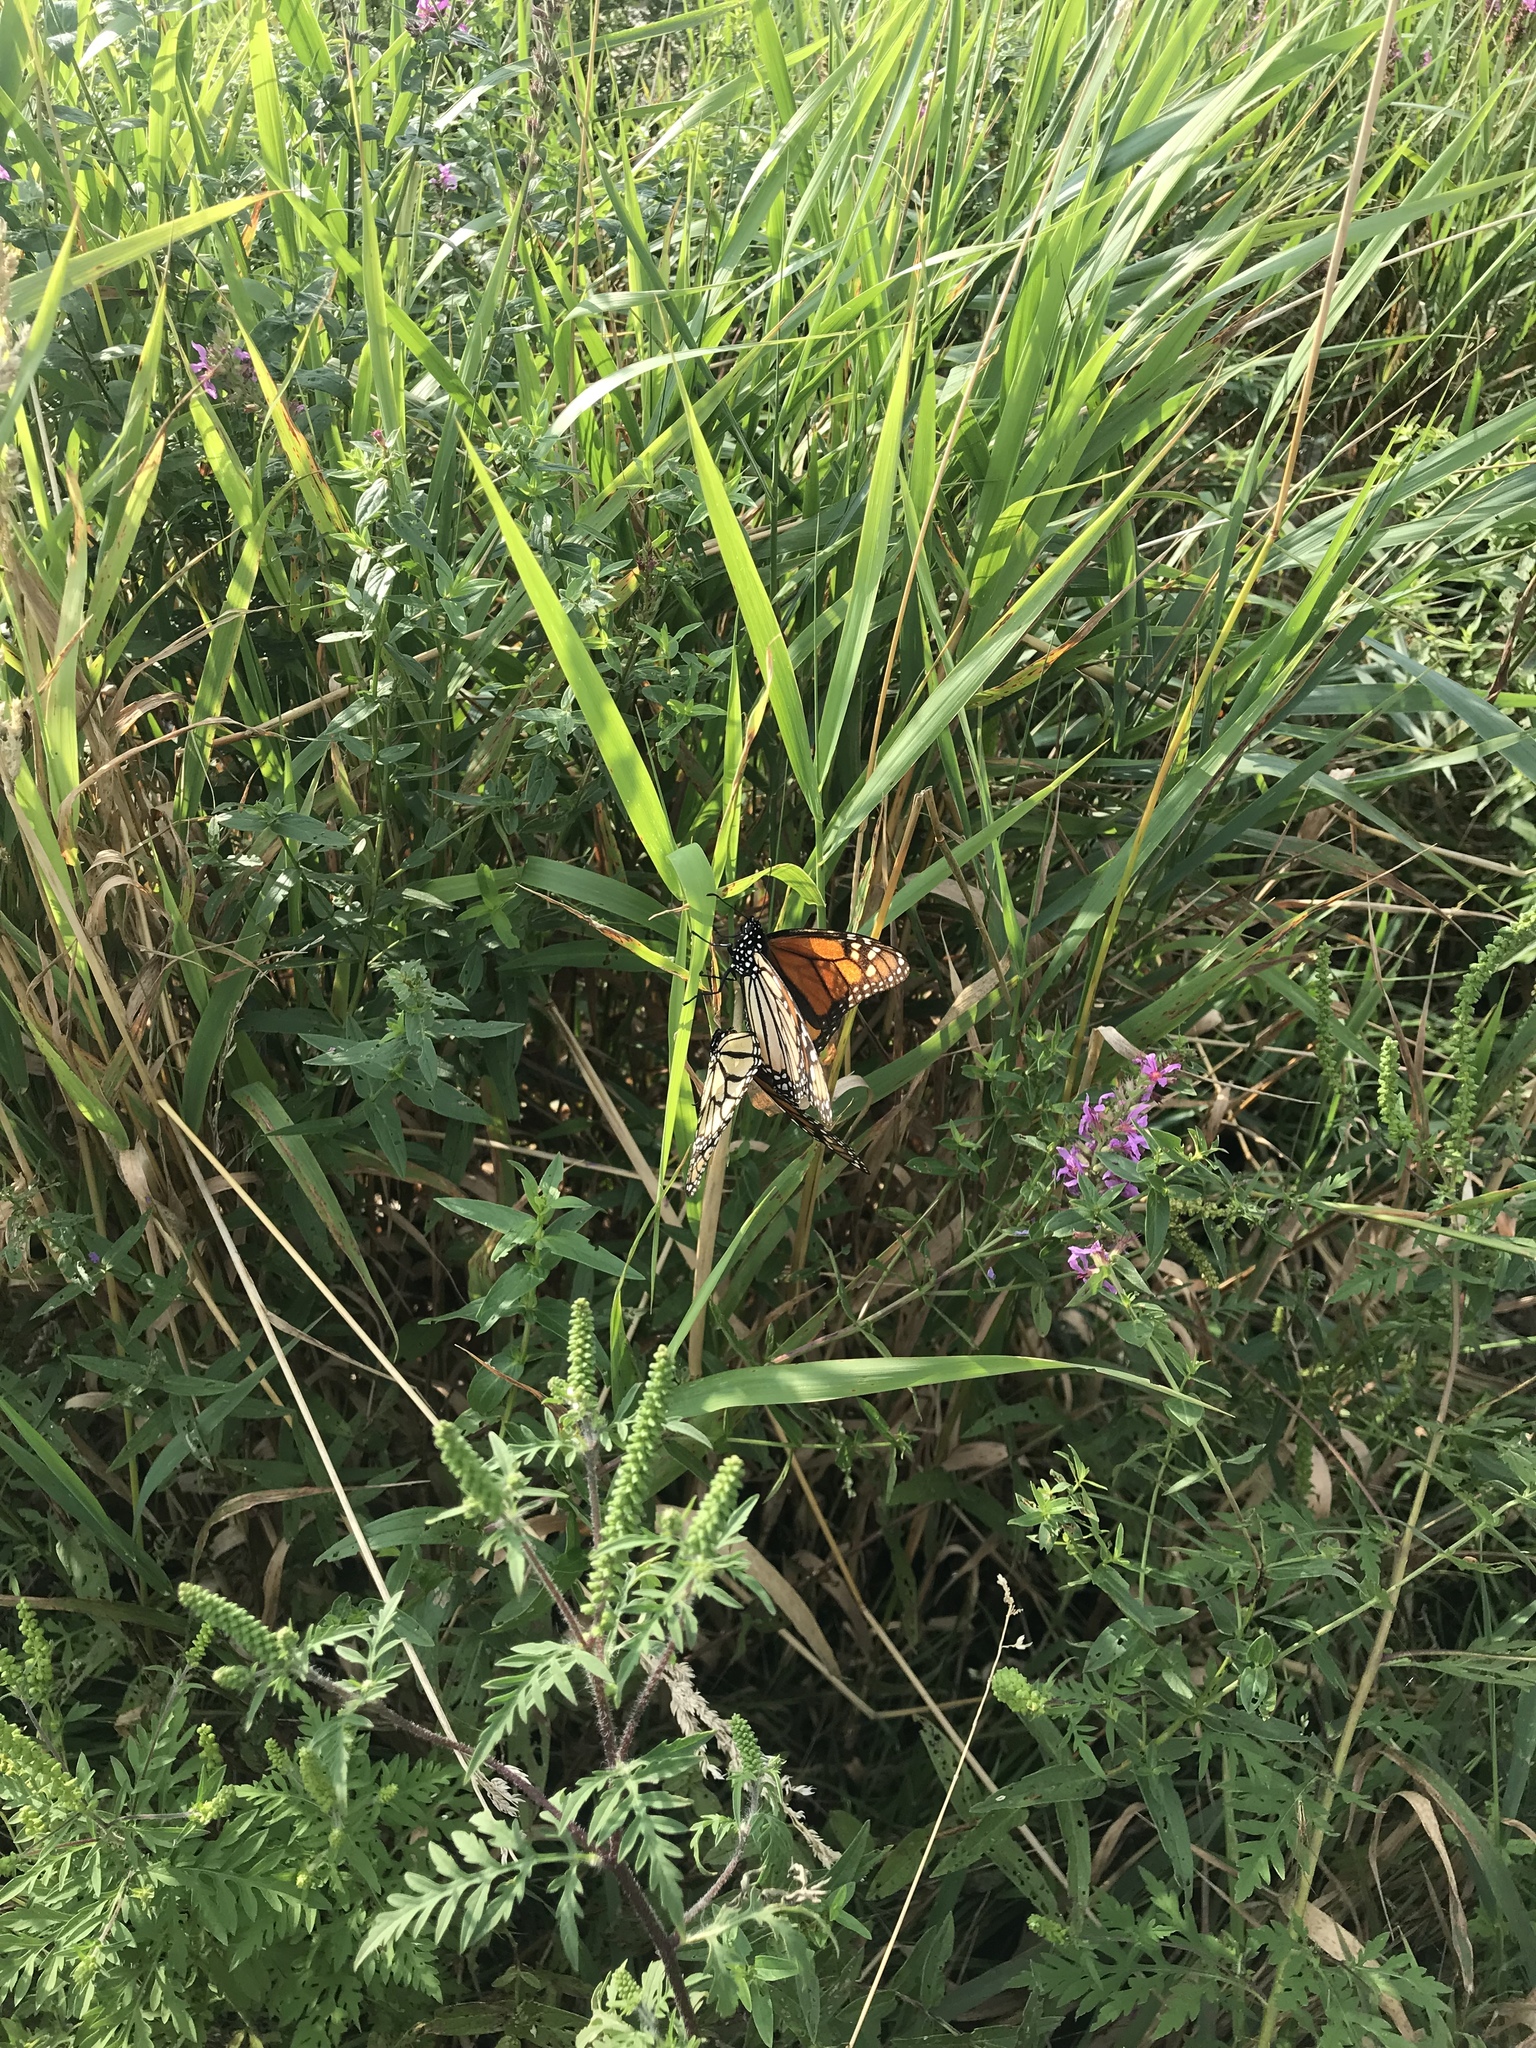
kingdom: Animalia
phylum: Arthropoda
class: Insecta
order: Lepidoptera
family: Nymphalidae
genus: Danaus
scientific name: Danaus plexippus
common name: Monarch
